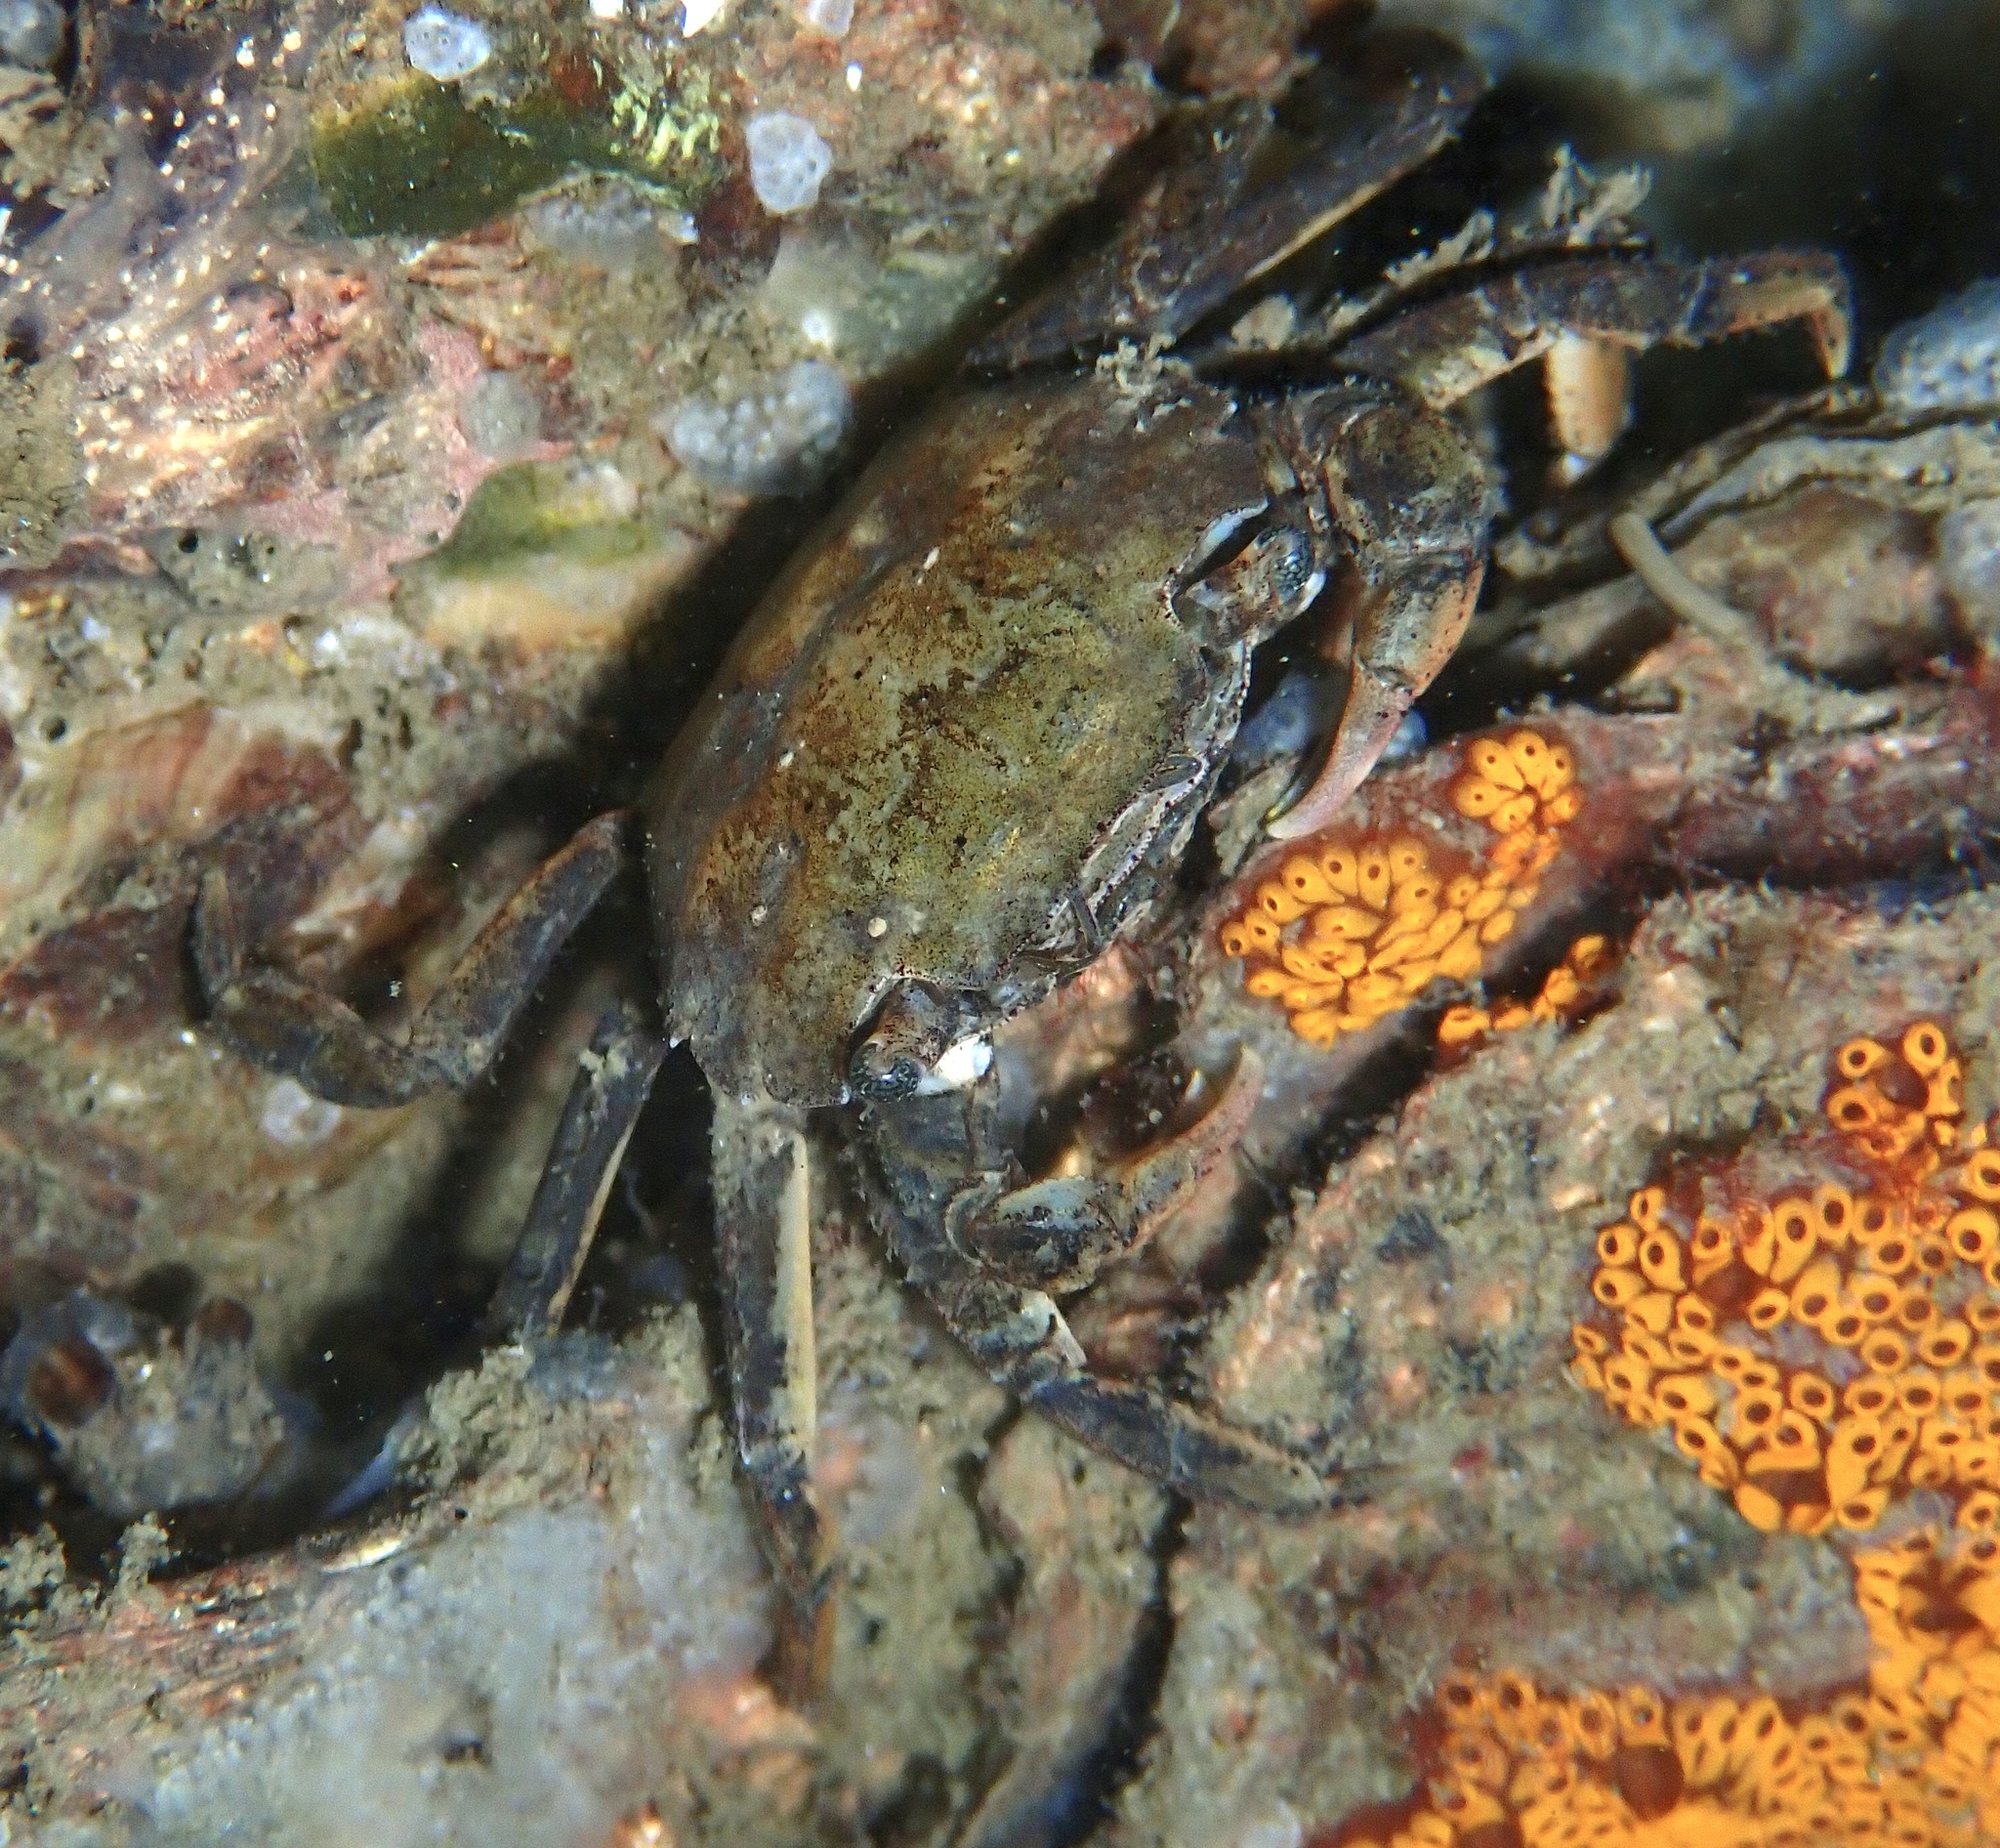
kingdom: Animalia
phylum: Arthropoda
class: Malacostraca
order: Decapoda
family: Varunidae
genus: Hemigrapsus
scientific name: Hemigrapsus takanoi
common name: Asian brush crab
